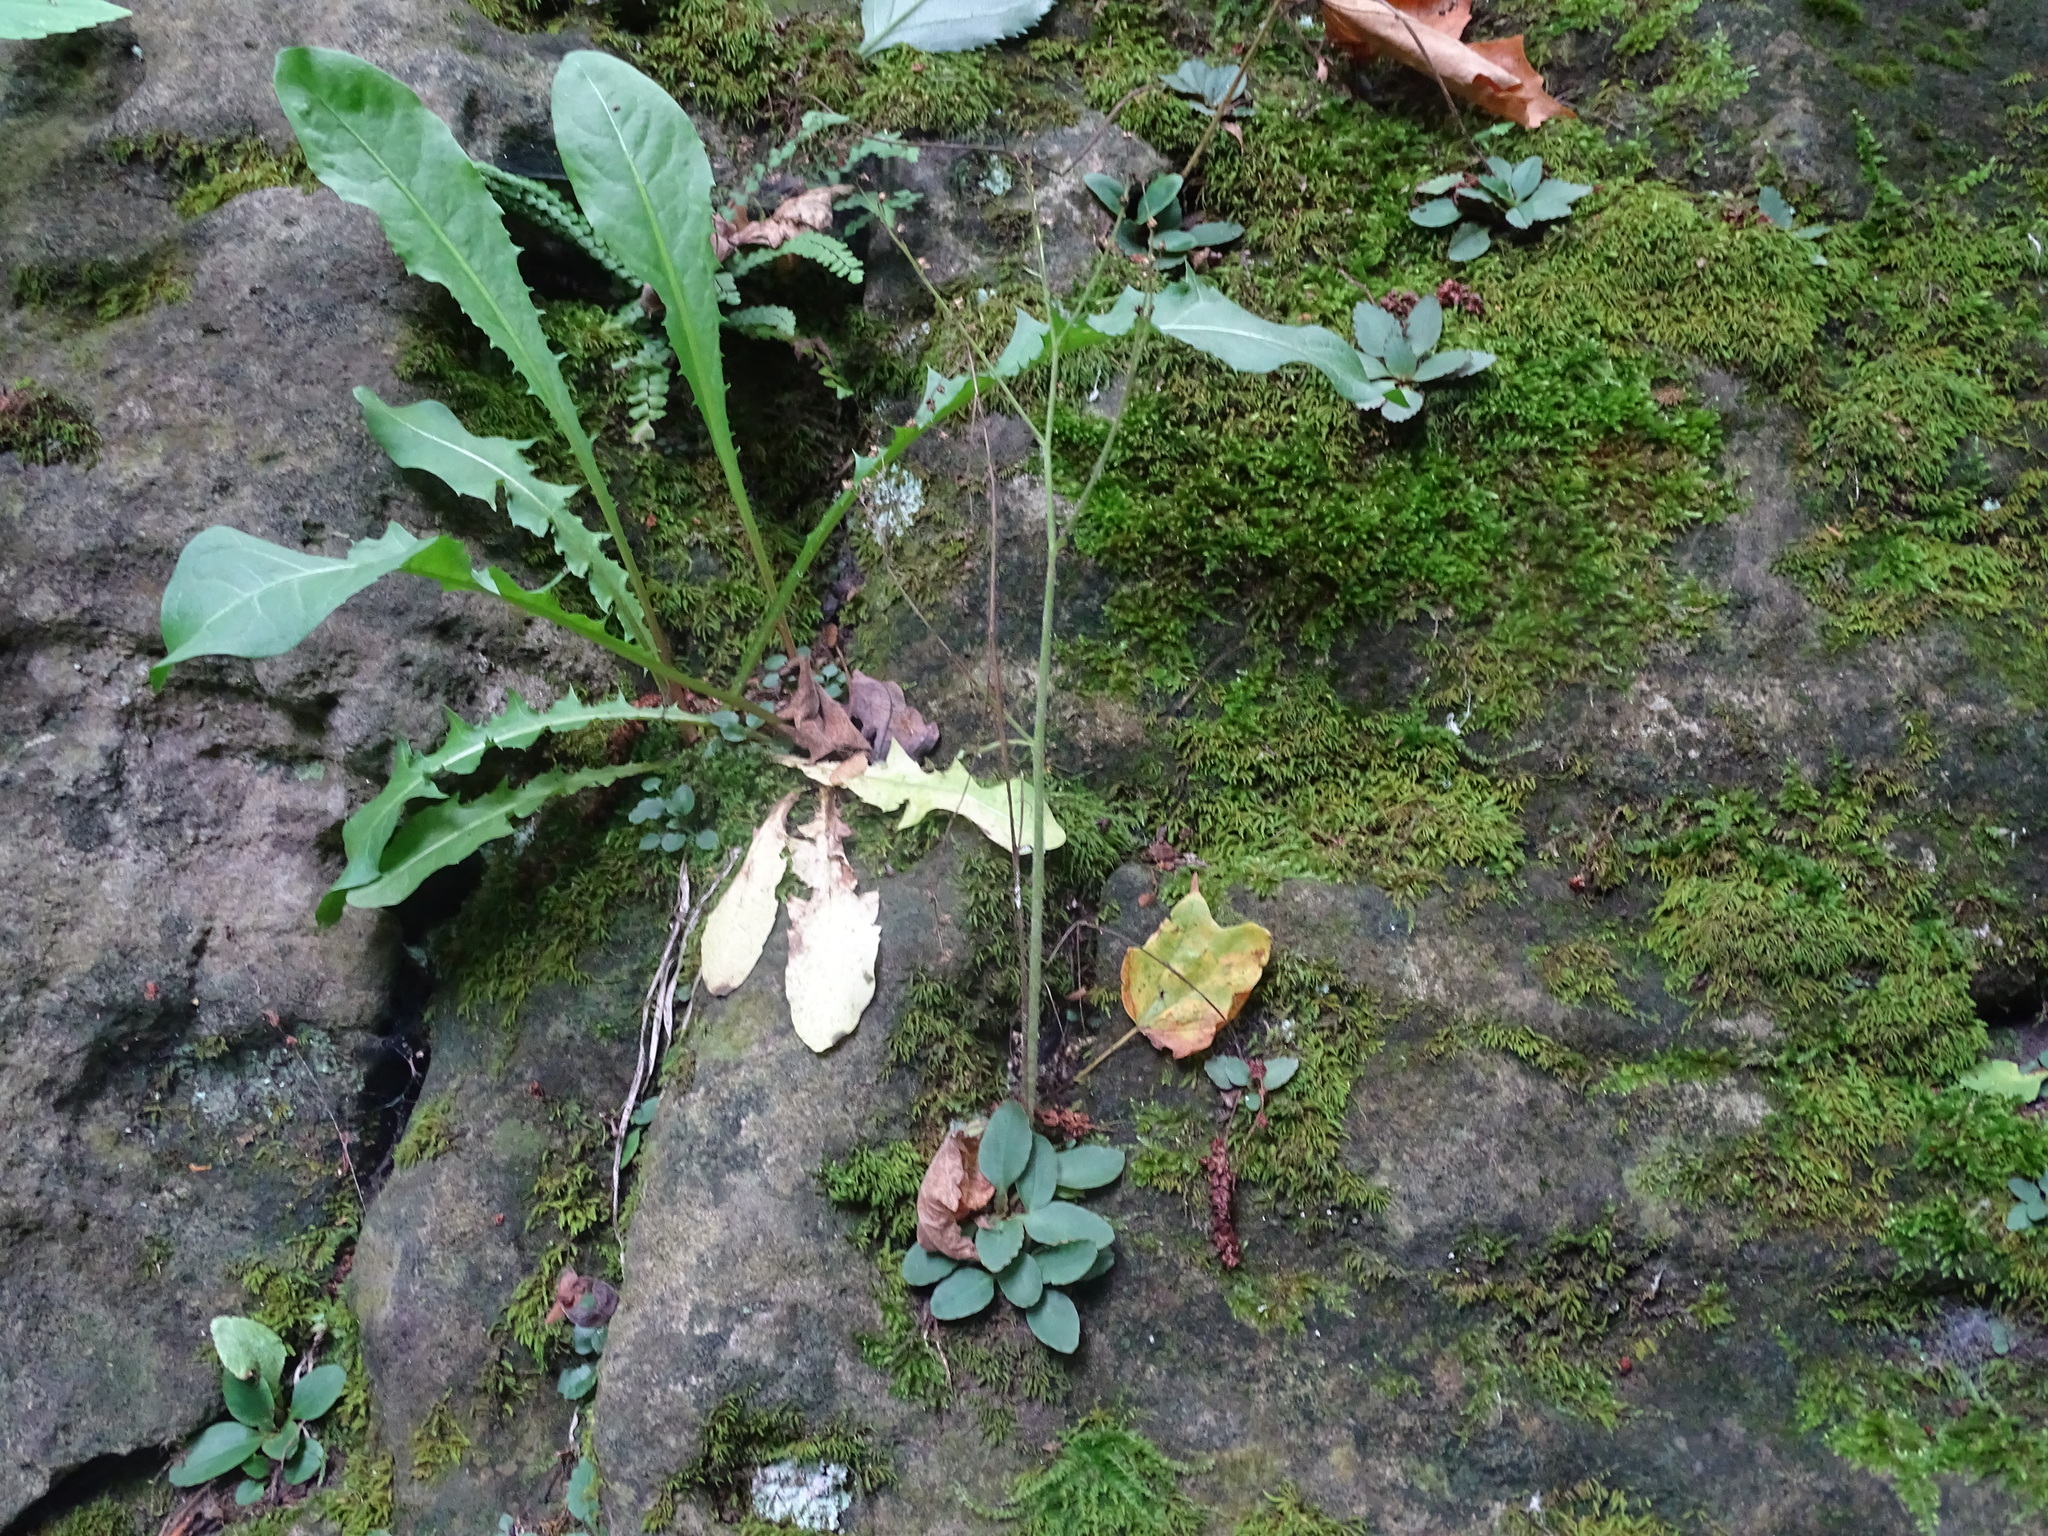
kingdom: Plantae
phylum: Tracheophyta
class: Magnoliopsida
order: Saxifragales
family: Saxifragaceae
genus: Micranthes
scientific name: Micranthes virginiensis
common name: Early saxifrage
